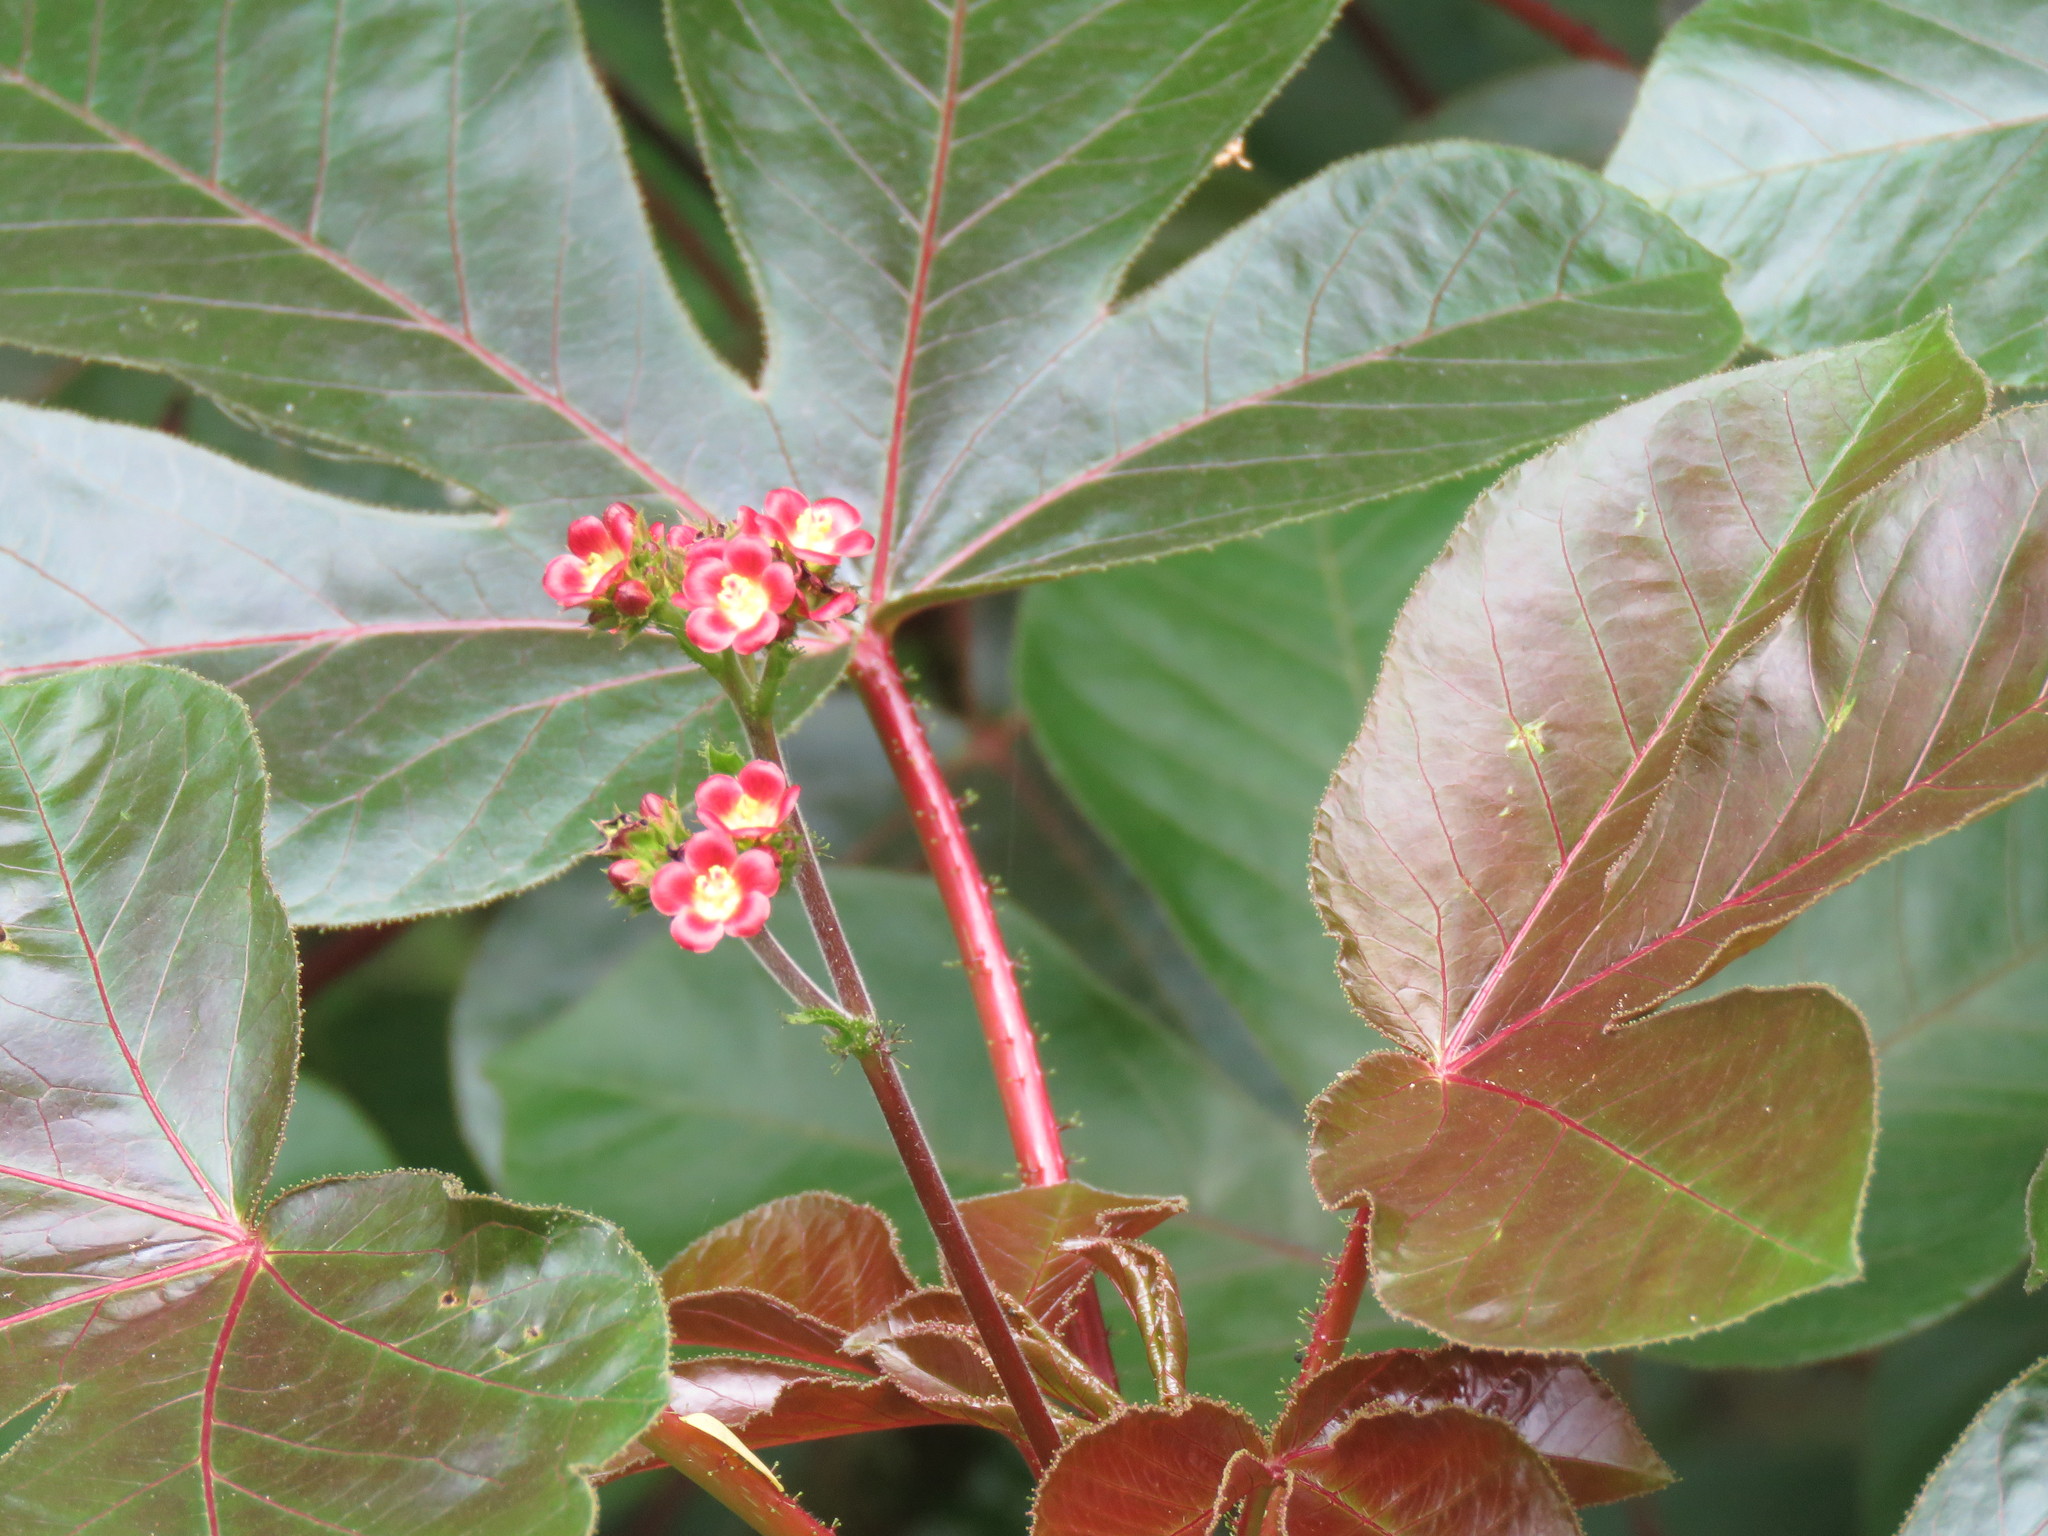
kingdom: Plantae
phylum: Tracheophyta
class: Magnoliopsida
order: Malpighiales
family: Euphorbiaceae
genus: Jatropha
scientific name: Jatropha gossypiifolia
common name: Bellyache bush
